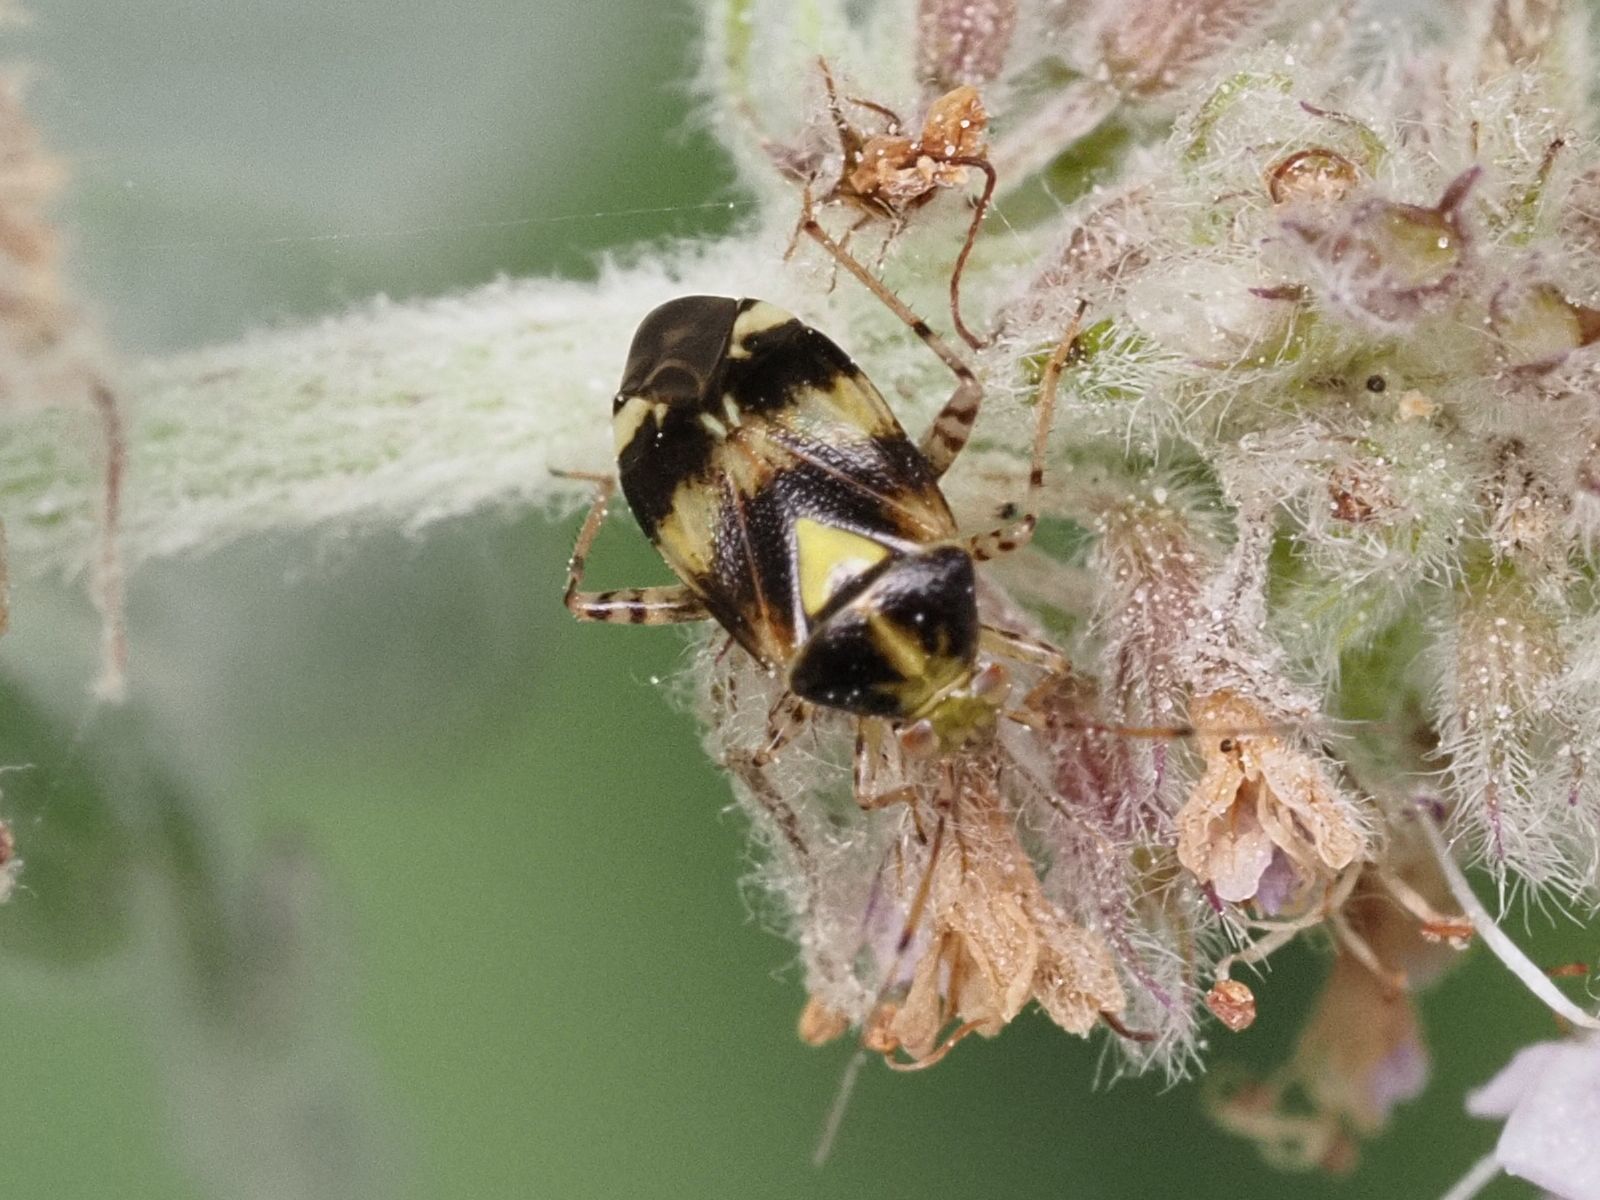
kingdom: Animalia
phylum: Arthropoda
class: Insecta
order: Hemiptera
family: Miridae
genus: Liocoris
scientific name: Liocoris tripustulatus
